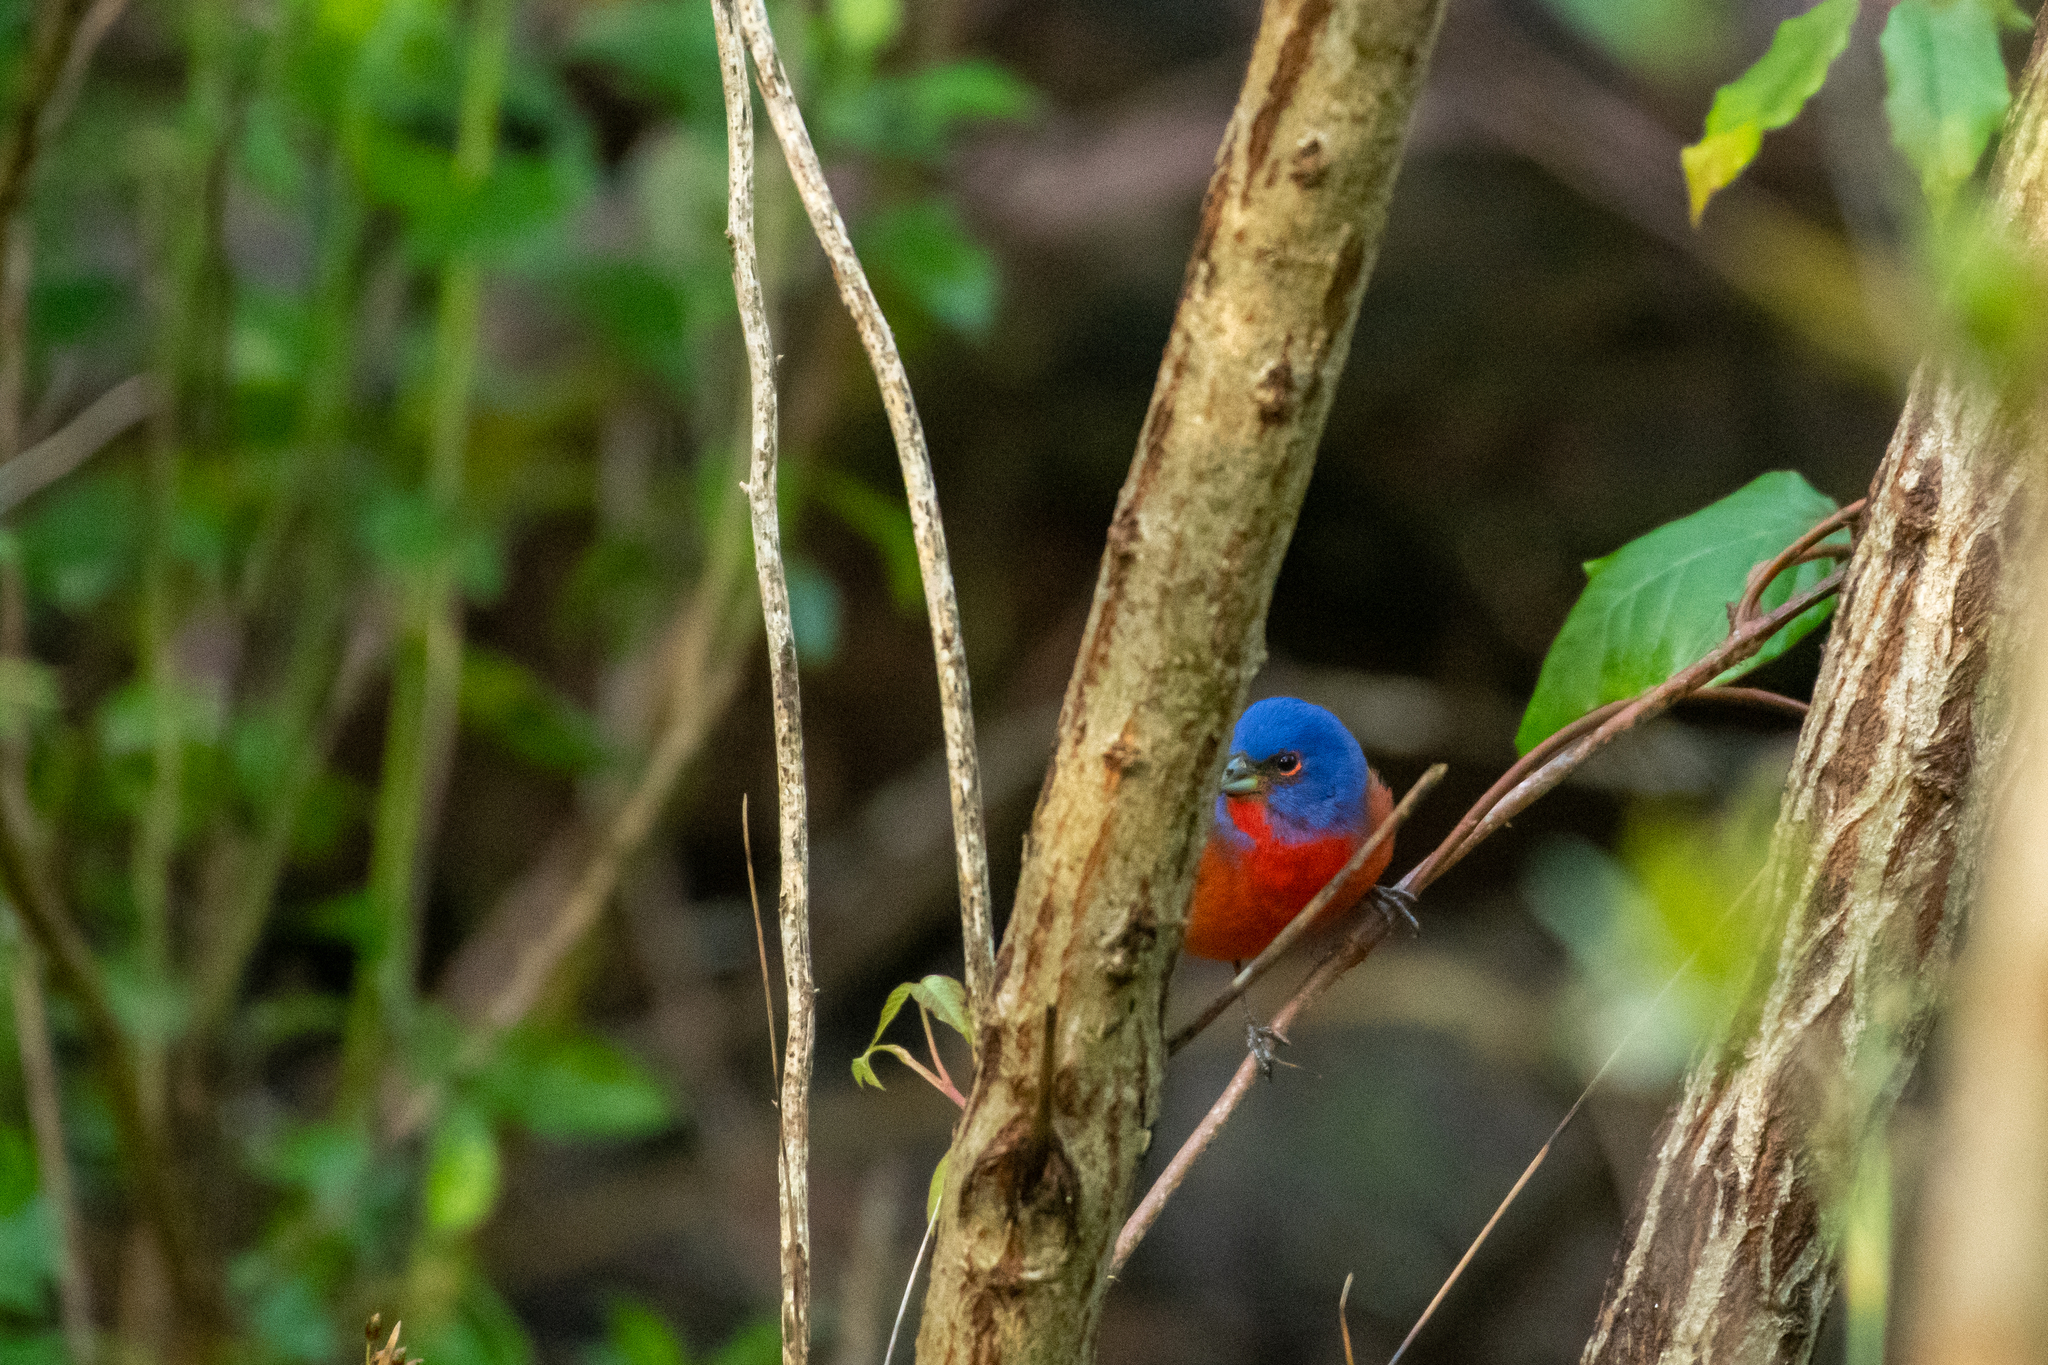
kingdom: Animalia
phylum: Chordata
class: Aves
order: Passeriformes
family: Cardinalidae
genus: Passerina
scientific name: Passerina ciris
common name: Painted bunting
